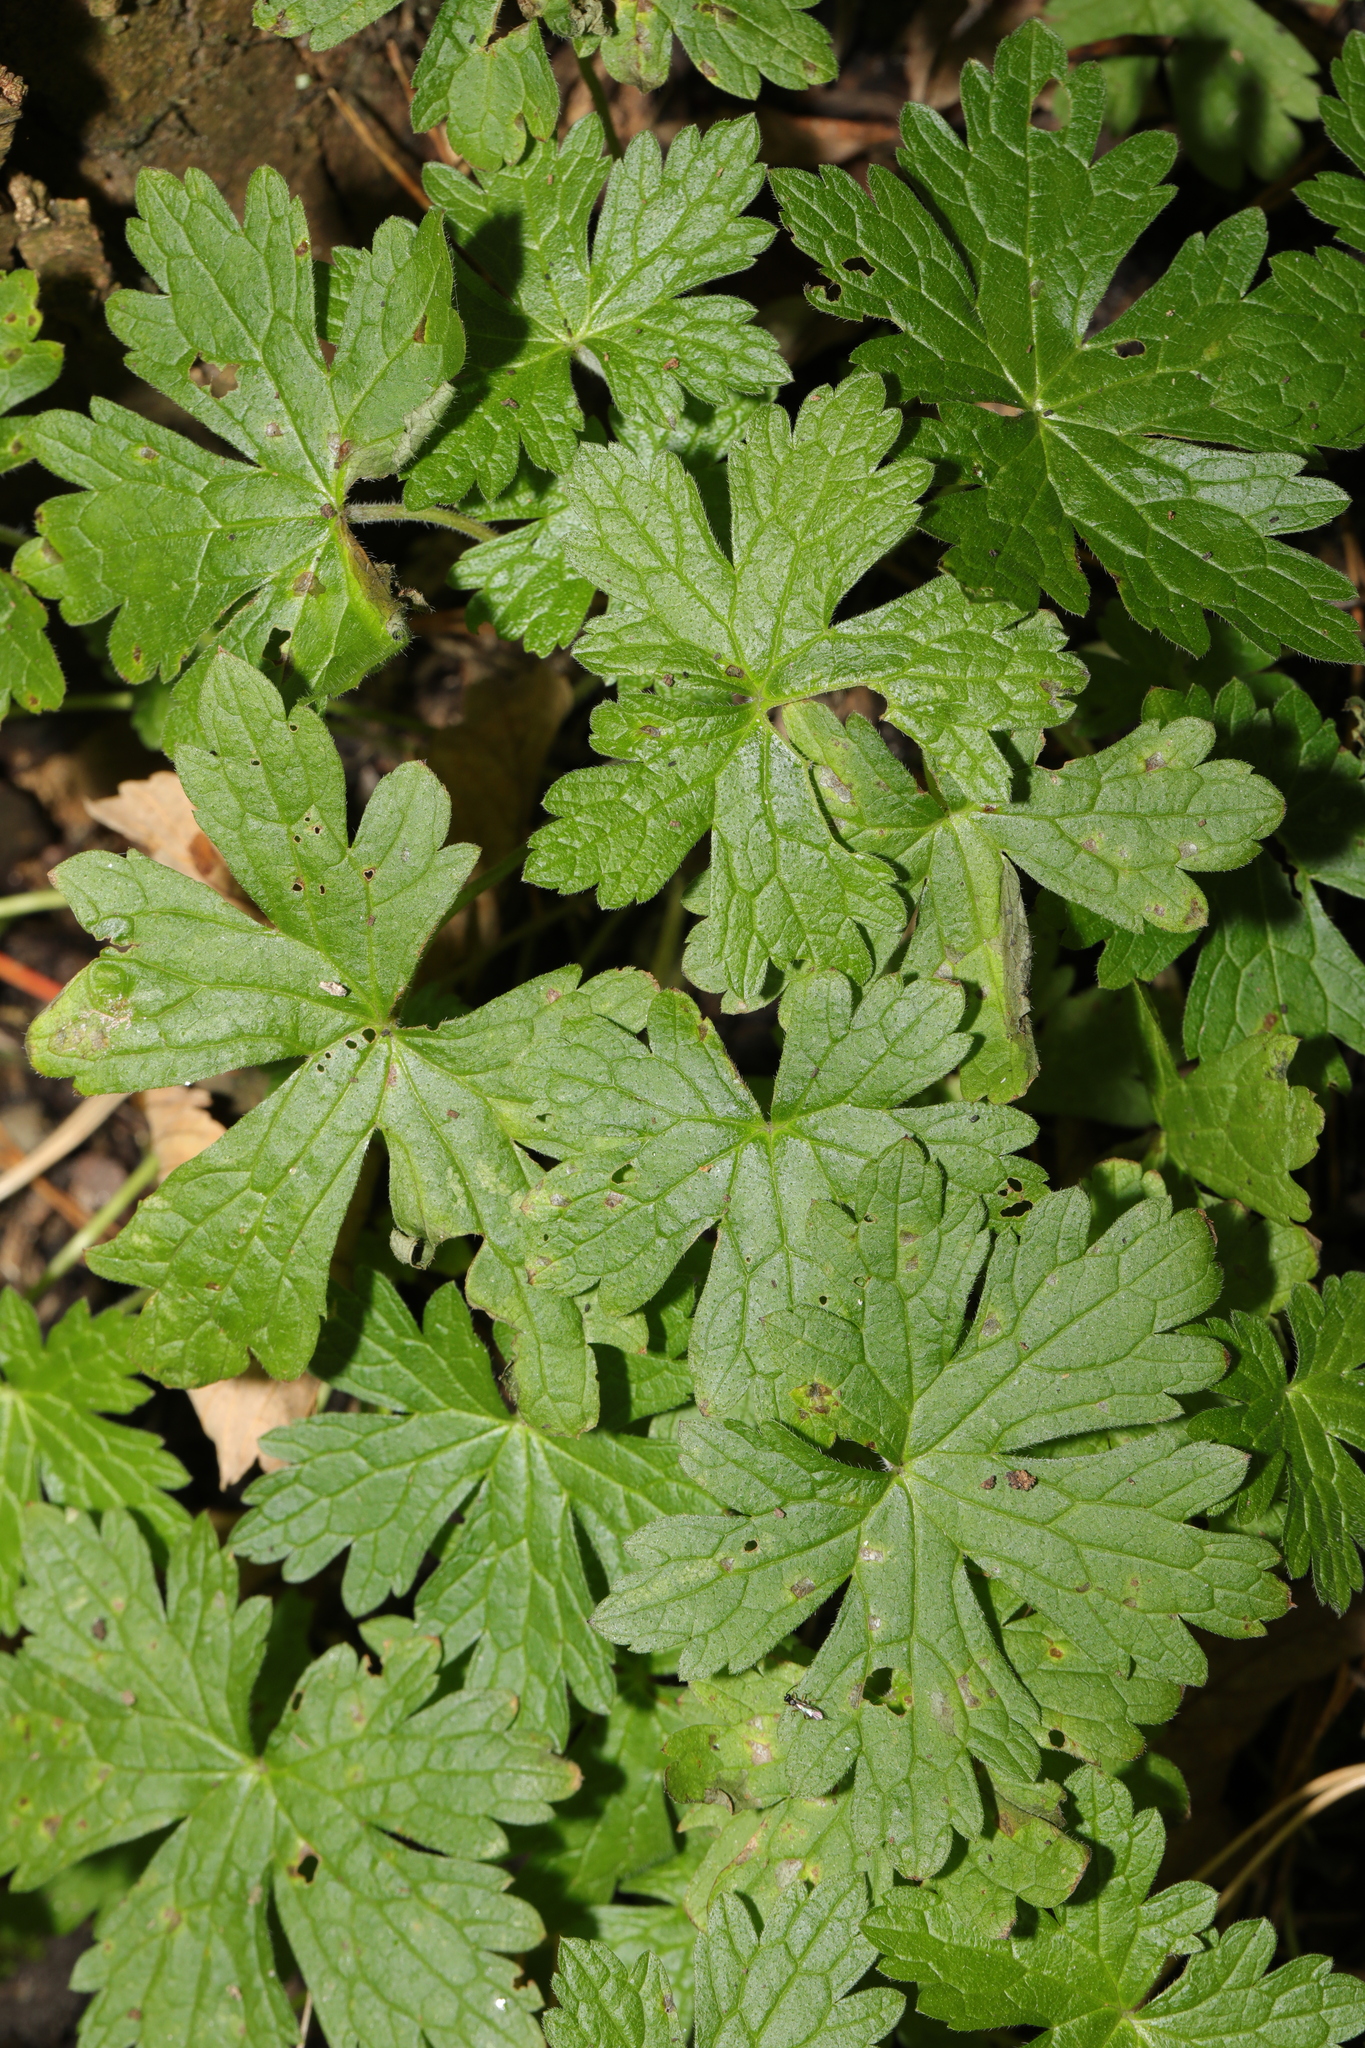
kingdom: Plantae
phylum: Tracheophyta
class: Magnoliopsida
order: Geraniales
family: Geraniaceae
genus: Geranium
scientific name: Geranium oxonianum
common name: Druce's crane's-bill
